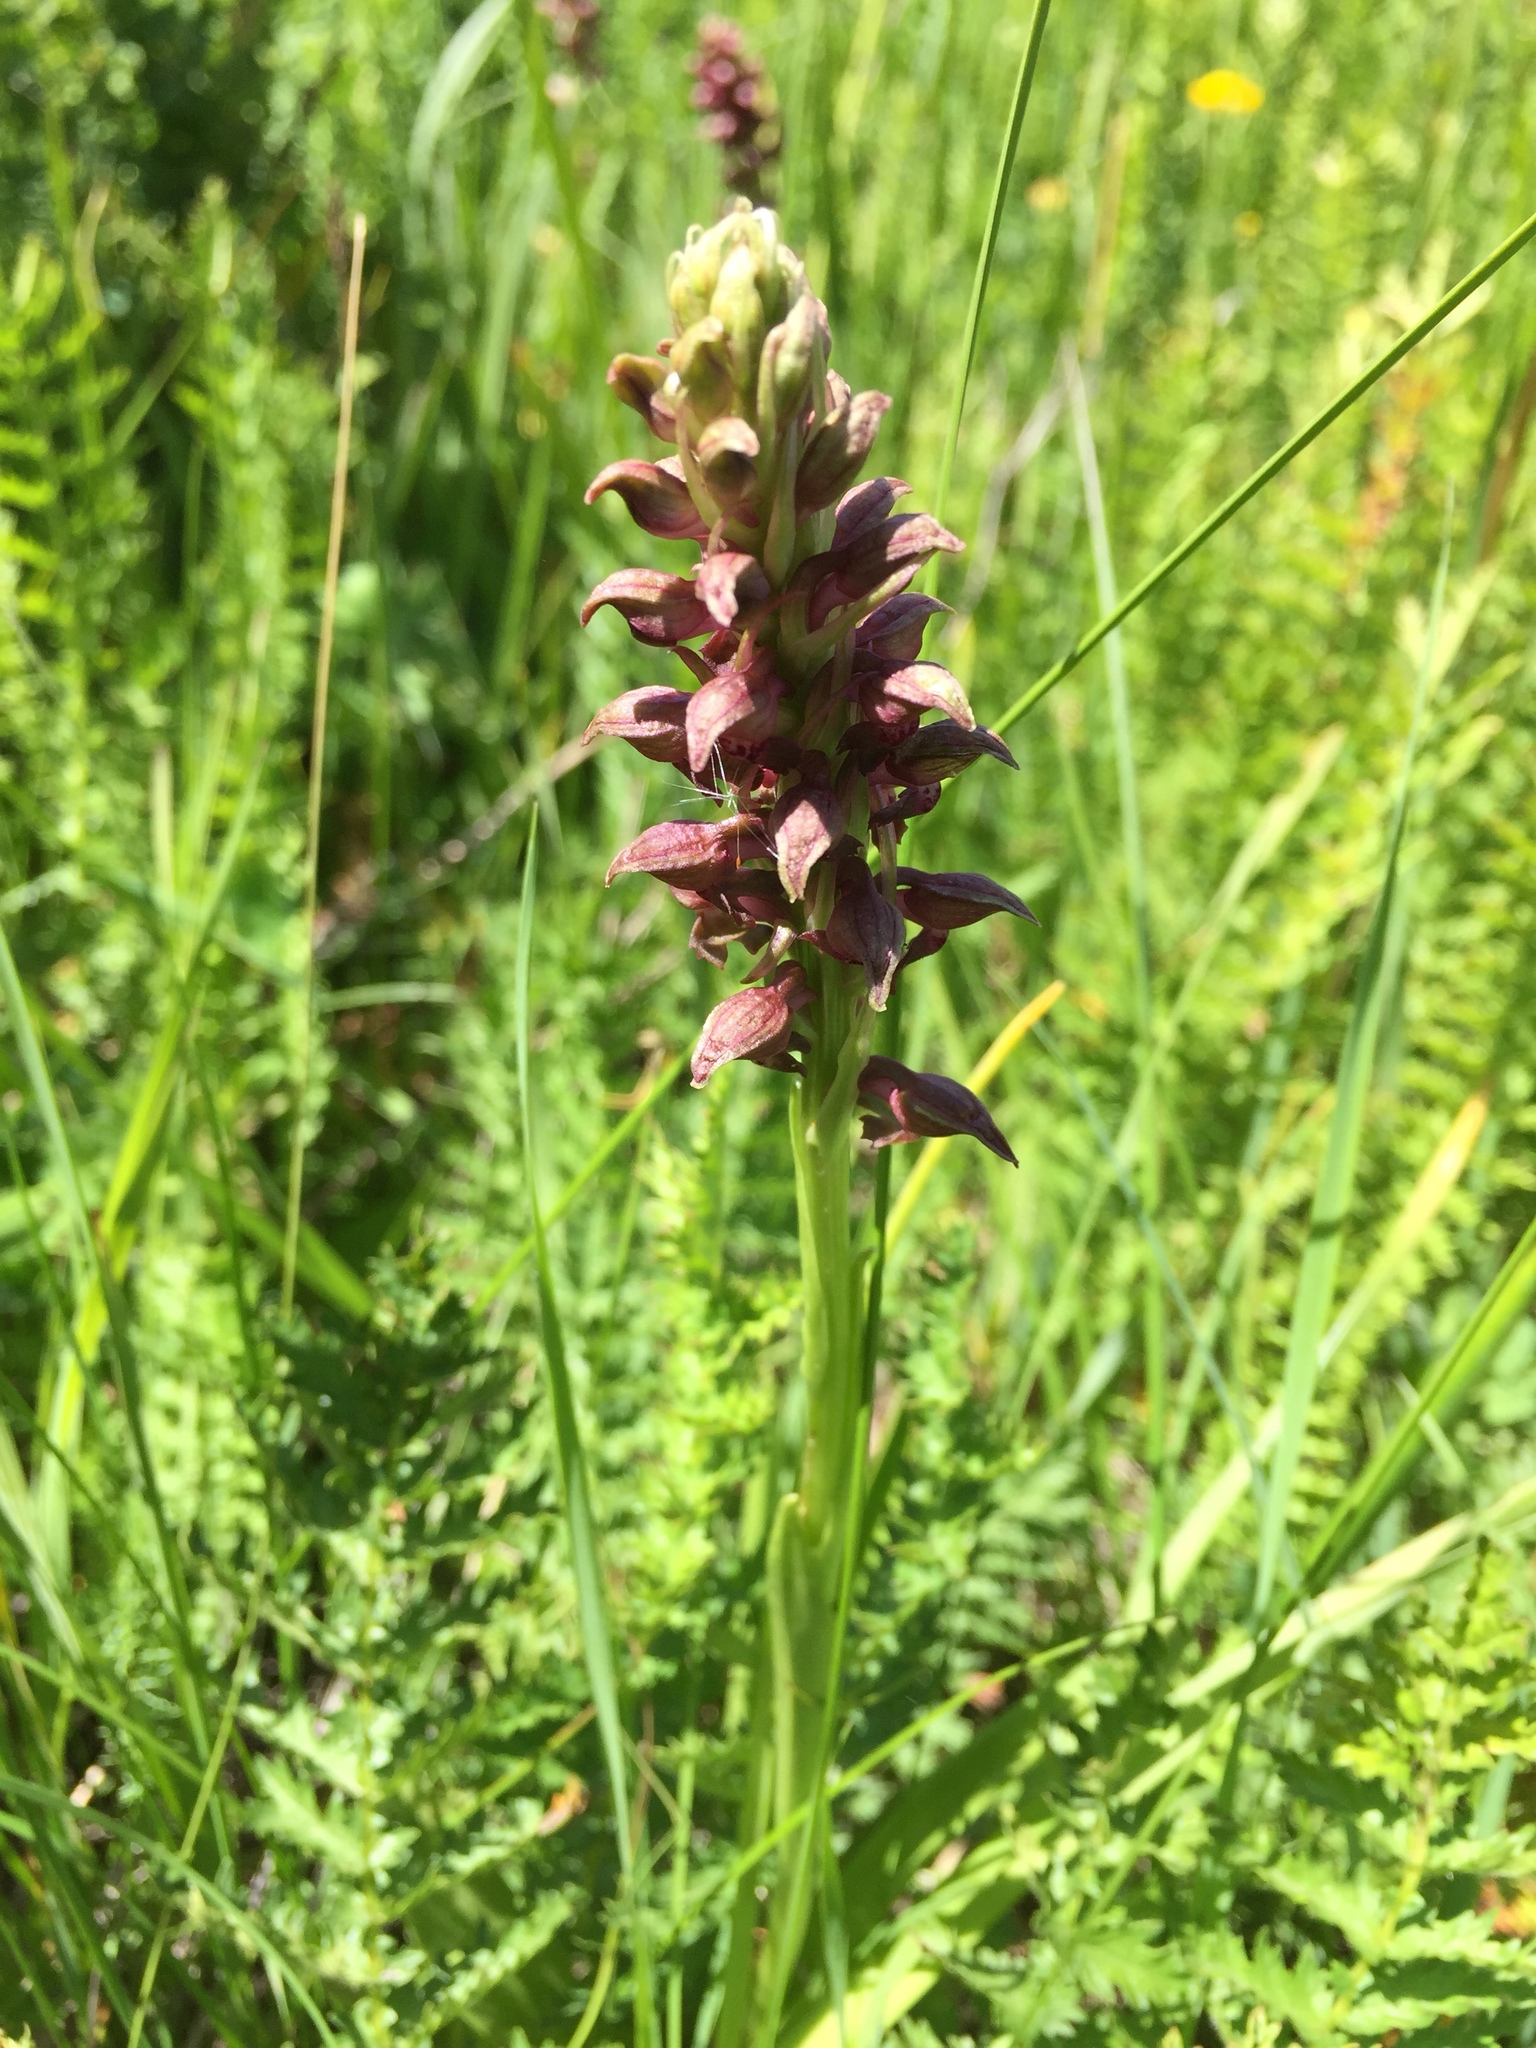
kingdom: Plantae
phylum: Tracheophyta
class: Liliopsida
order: Asparagales
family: Orchidaceae
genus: Anacamptis
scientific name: Anacamptis coriophora
